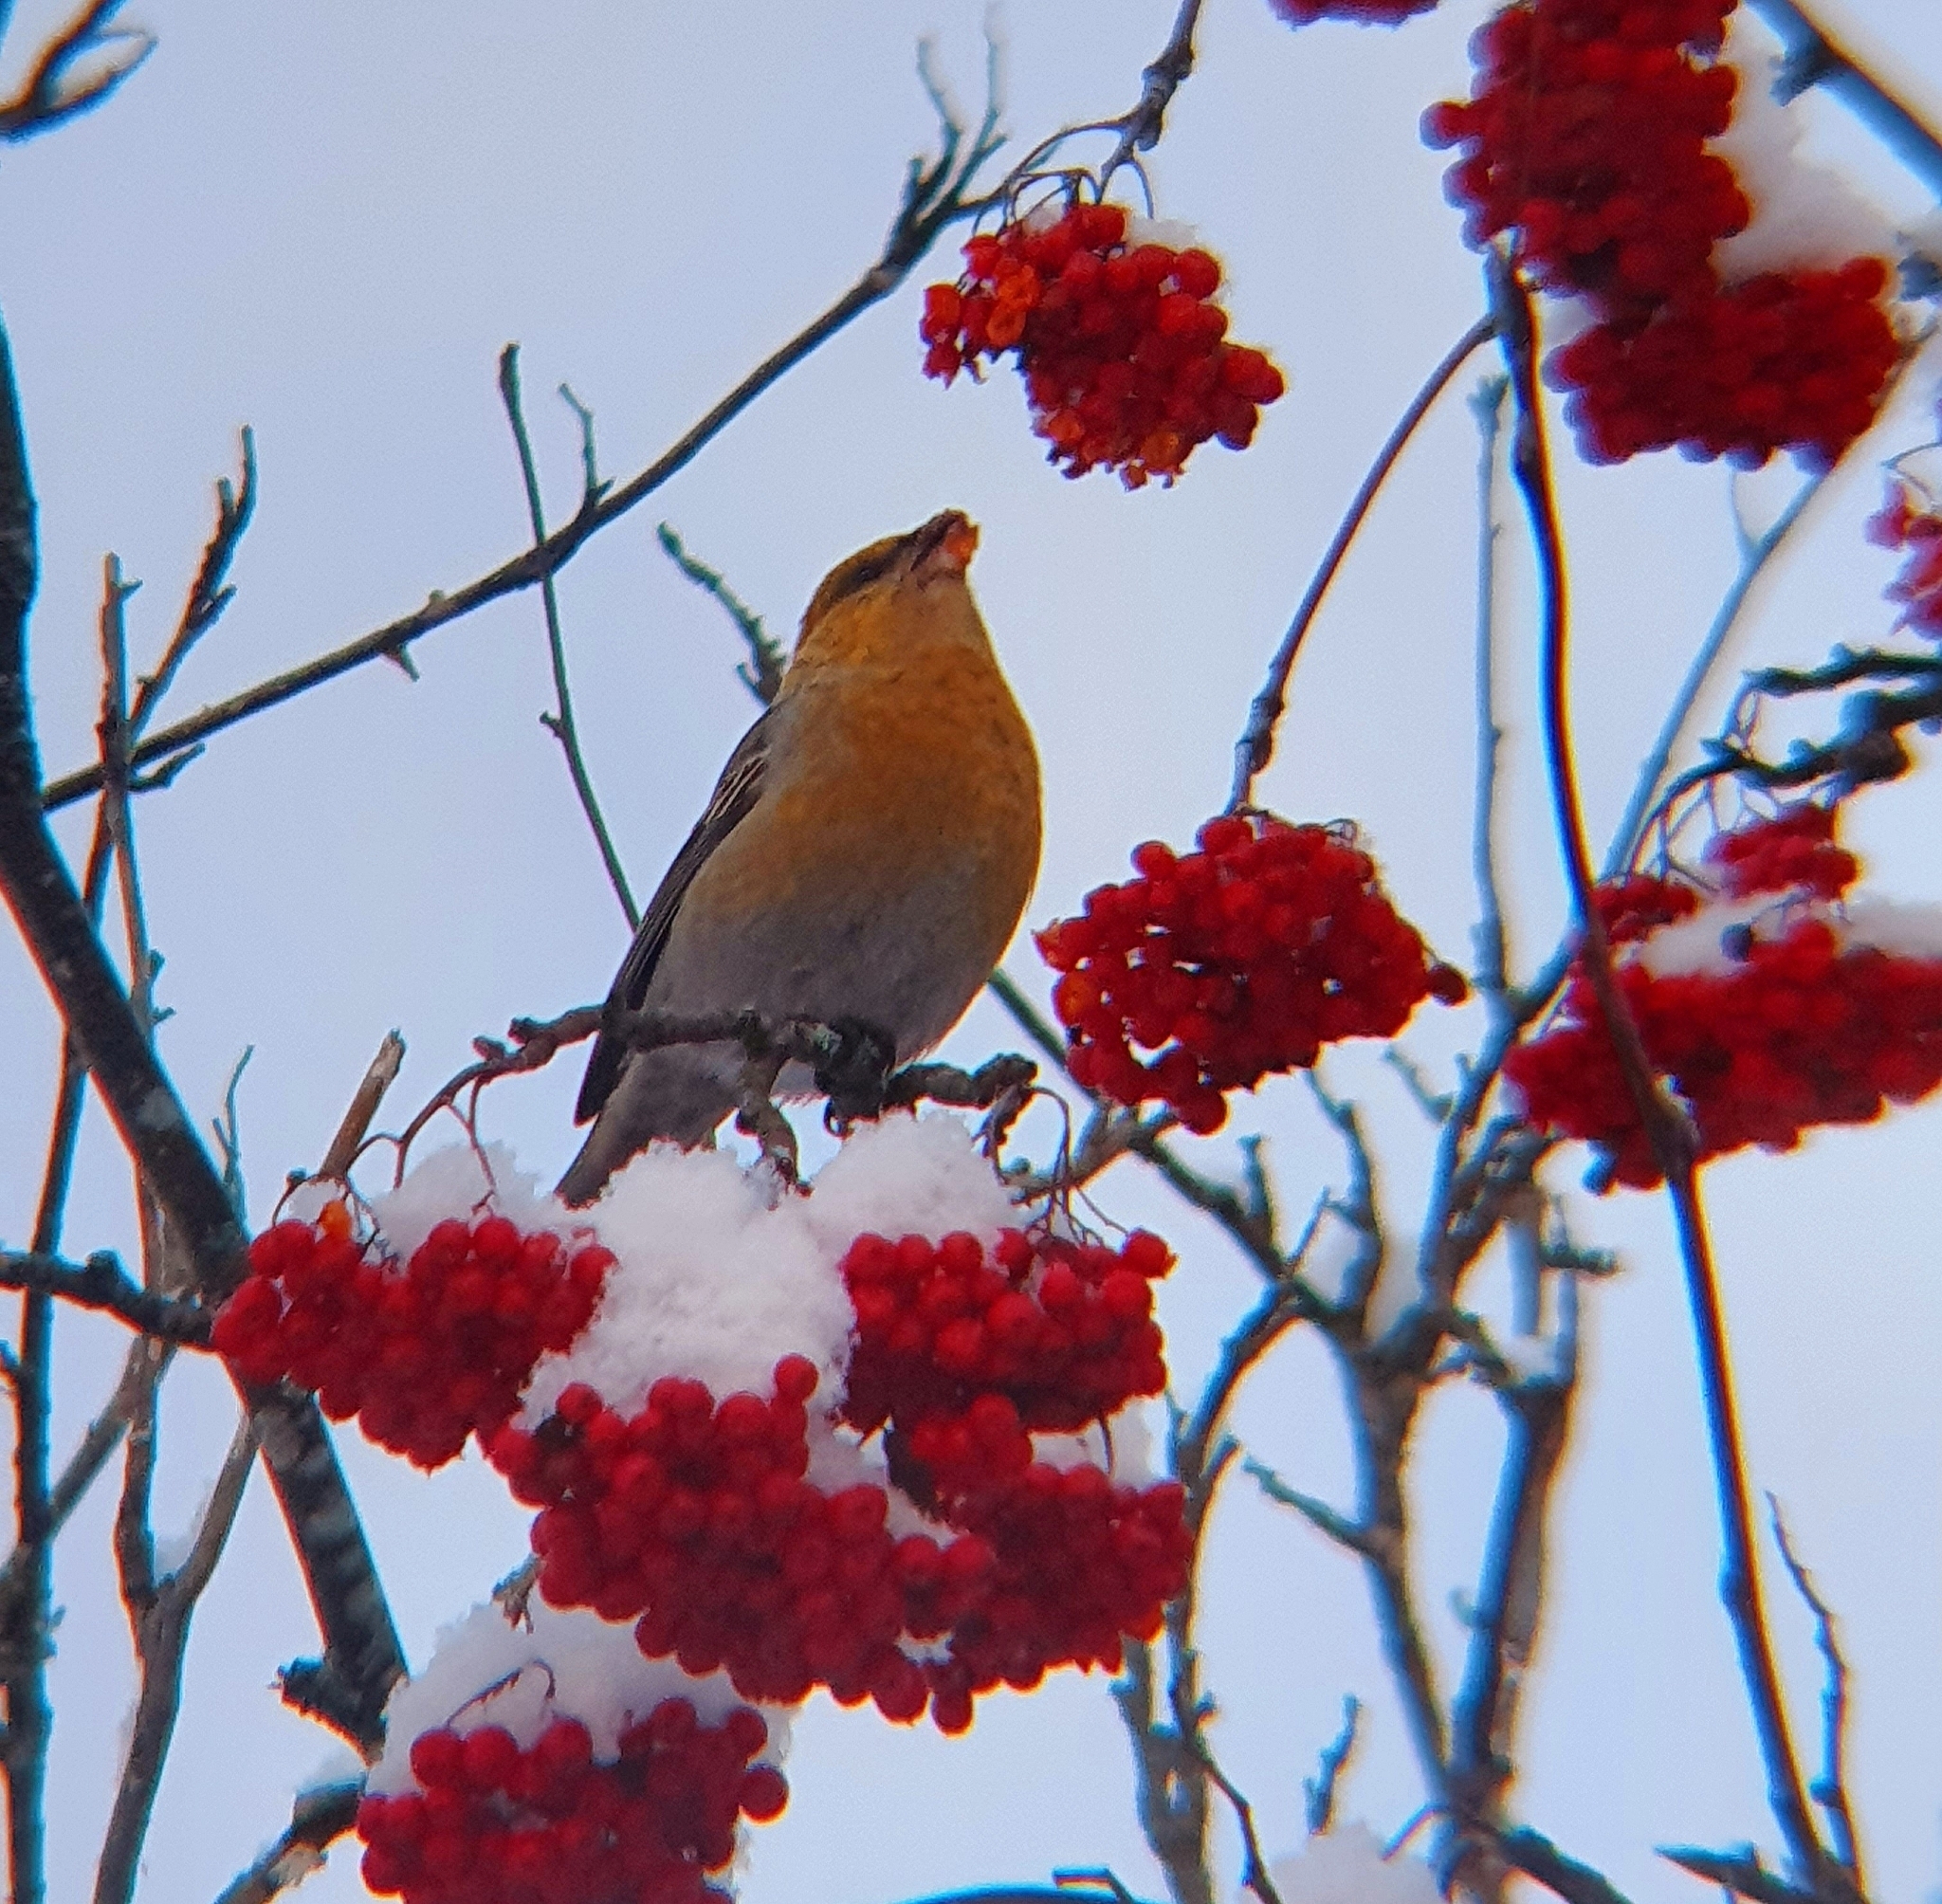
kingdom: Animalia
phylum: Chordata
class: Aves
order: Passeriformes
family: Fringillidae
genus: Pinicola
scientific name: Pinicola enucleator
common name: Pine grosbeak
